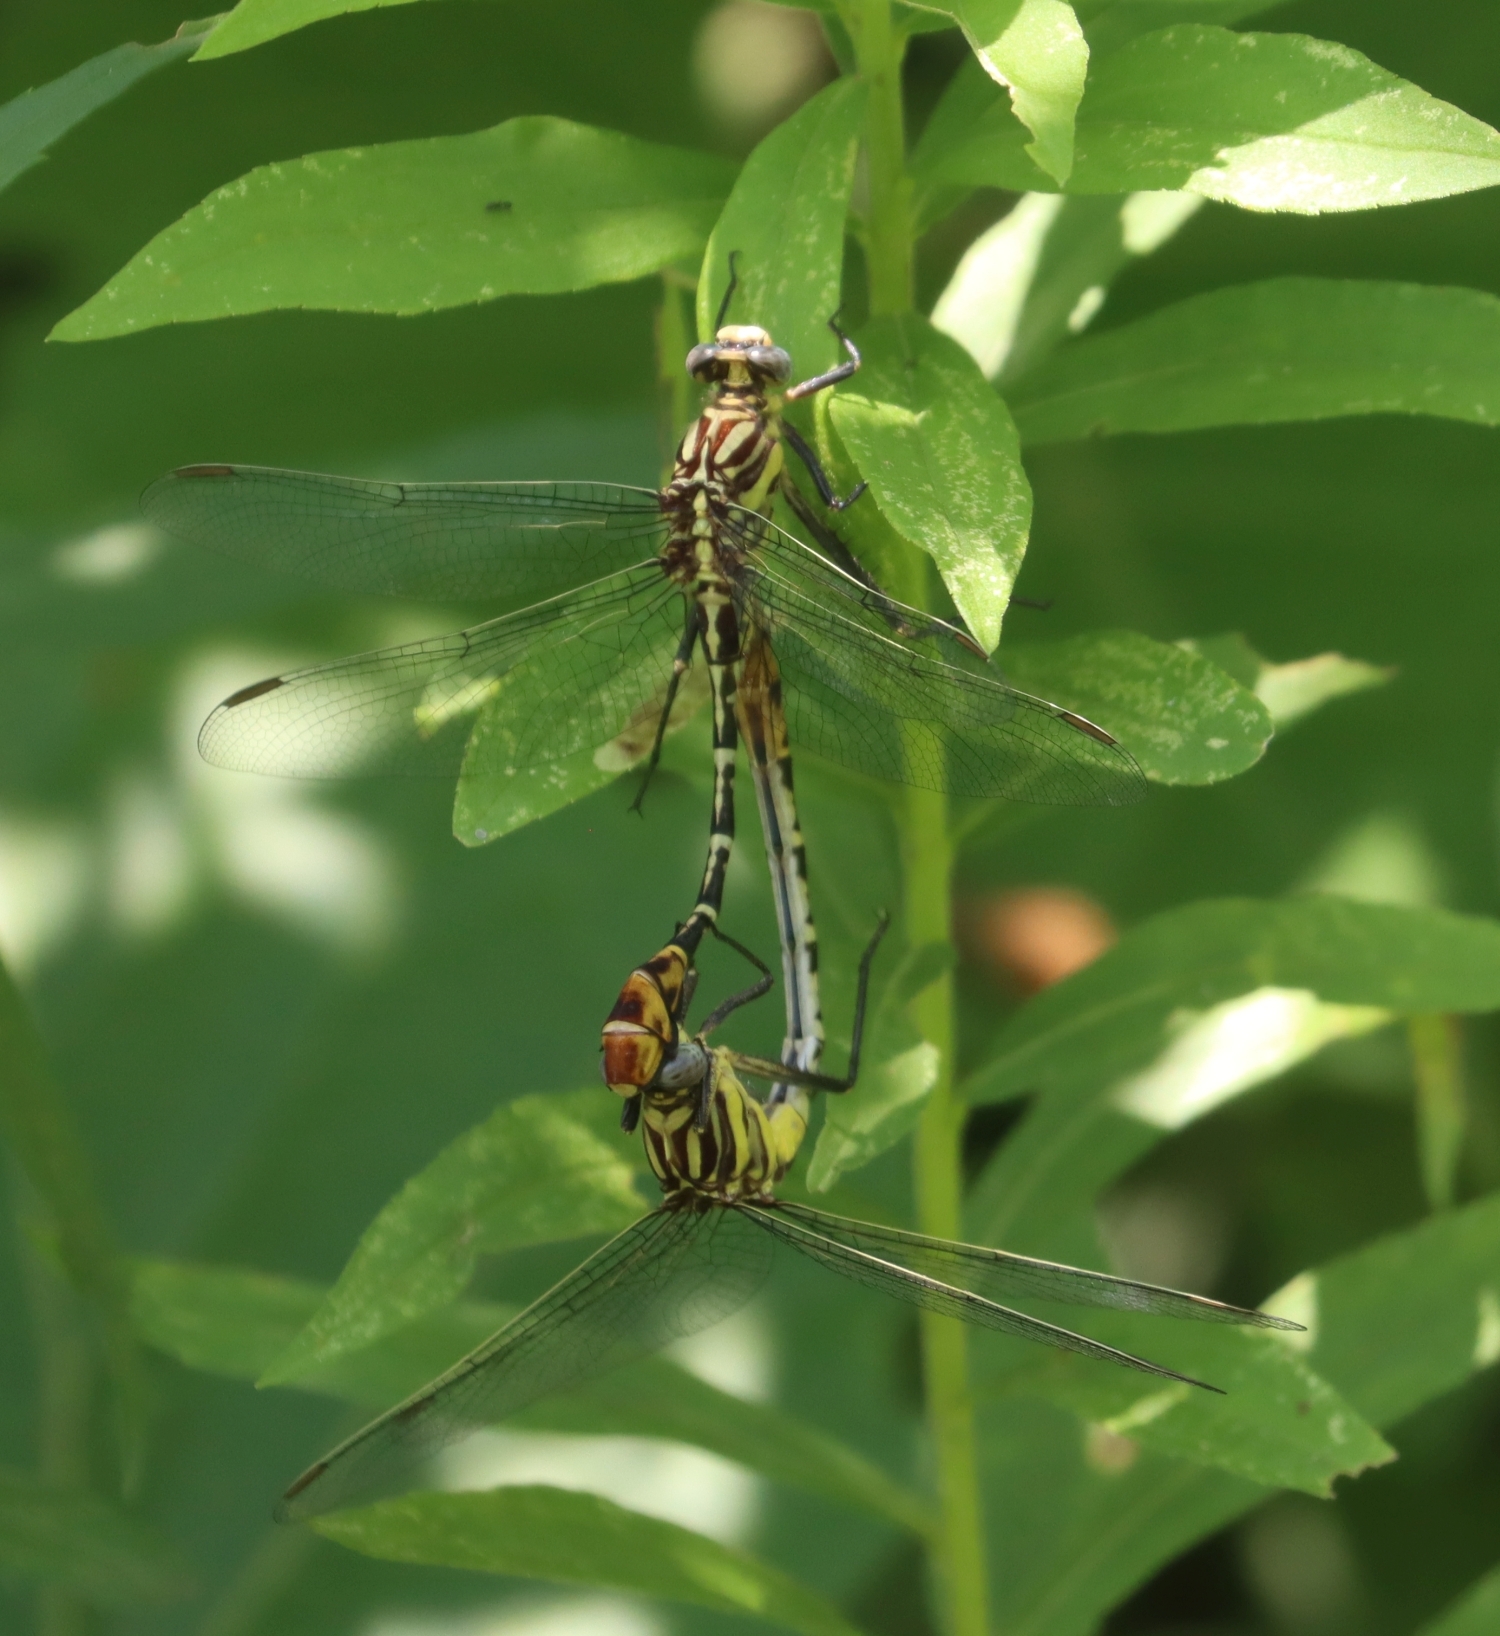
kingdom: Animalia
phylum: Arthropoda
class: Insecta
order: Odonata
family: Gomphidae
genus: Dromogomphus
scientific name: Dromogomphus spoliatus
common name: Flag-tailed spinyleg
